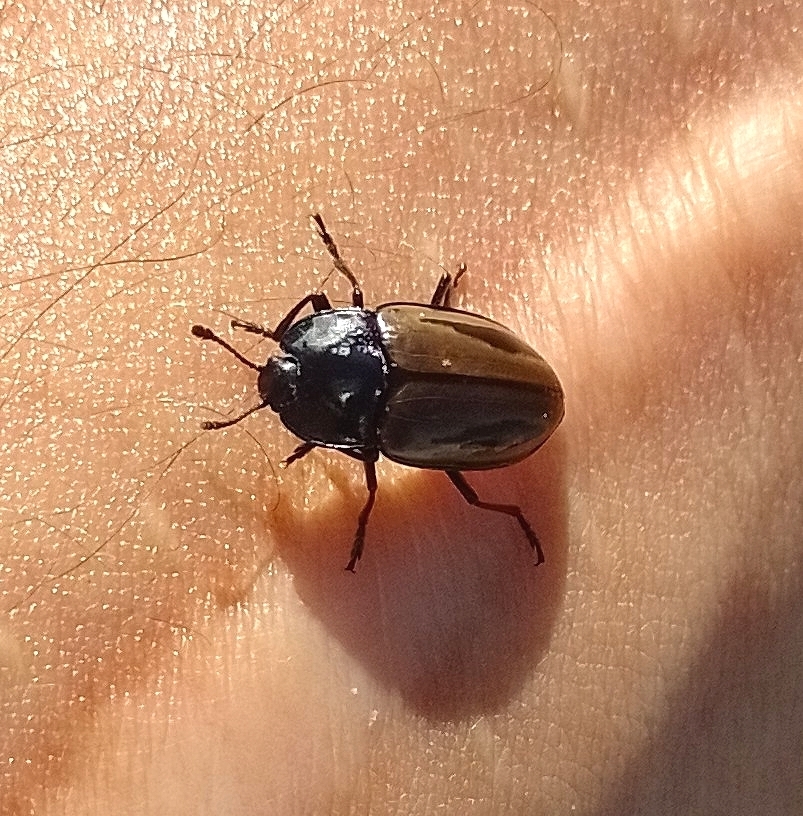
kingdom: Animalia
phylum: Arthropoda
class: Insecta
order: Coleoptera
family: Erotylidae
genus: Iphiclus
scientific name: Iphiclus
